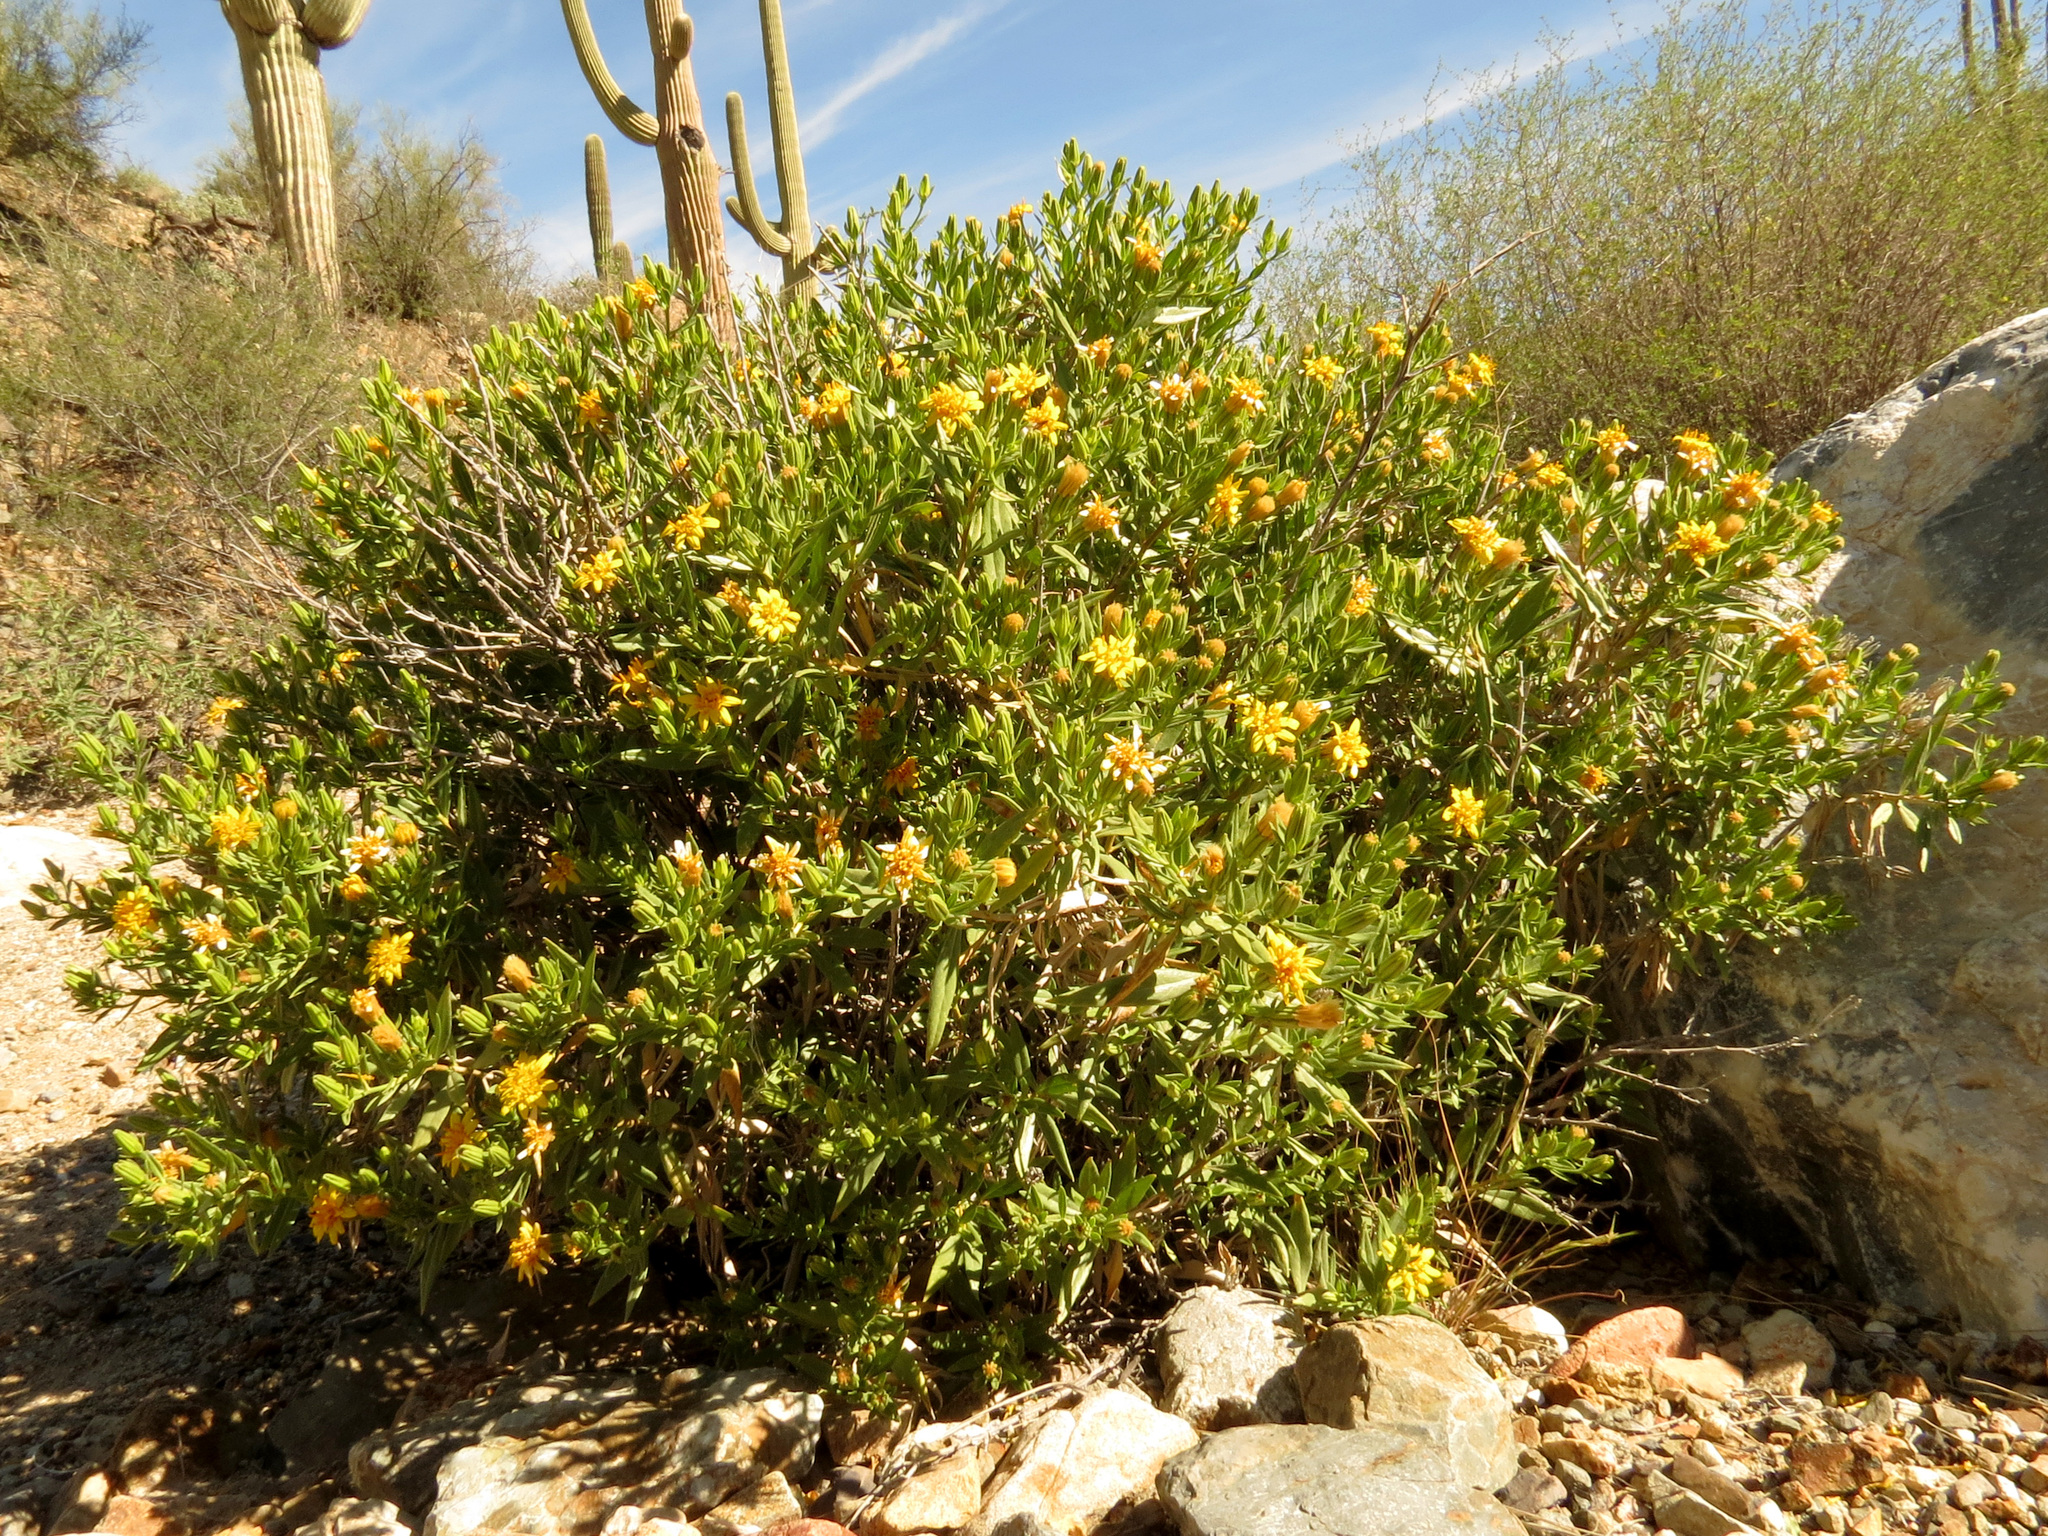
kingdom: Plantae
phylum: Tracheophyta
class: Magnoliopsida
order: Asterales
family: Asteraceae
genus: Trixis
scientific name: Trixis californica
